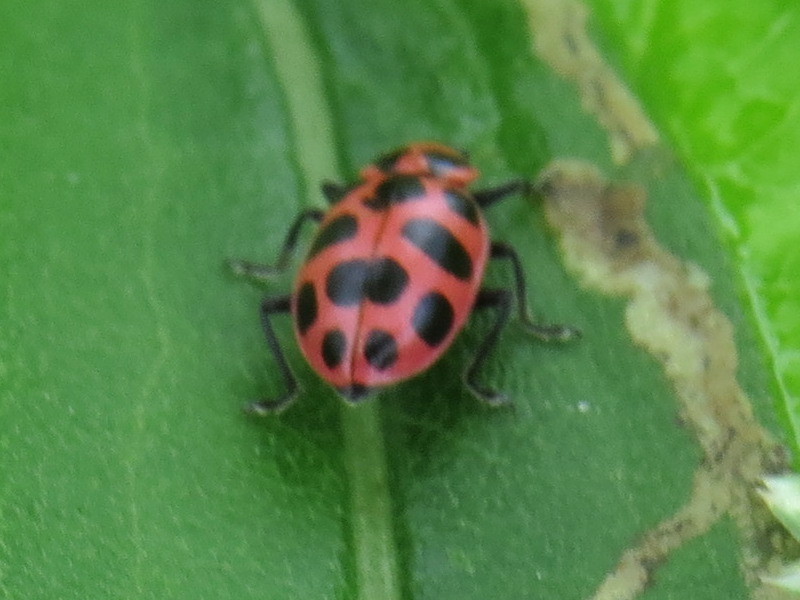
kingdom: Animalia
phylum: Arthropoda
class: Insecta
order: Coleoptera
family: Coccinellidae
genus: Coleomegilla
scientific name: Coleomegilla maculata
